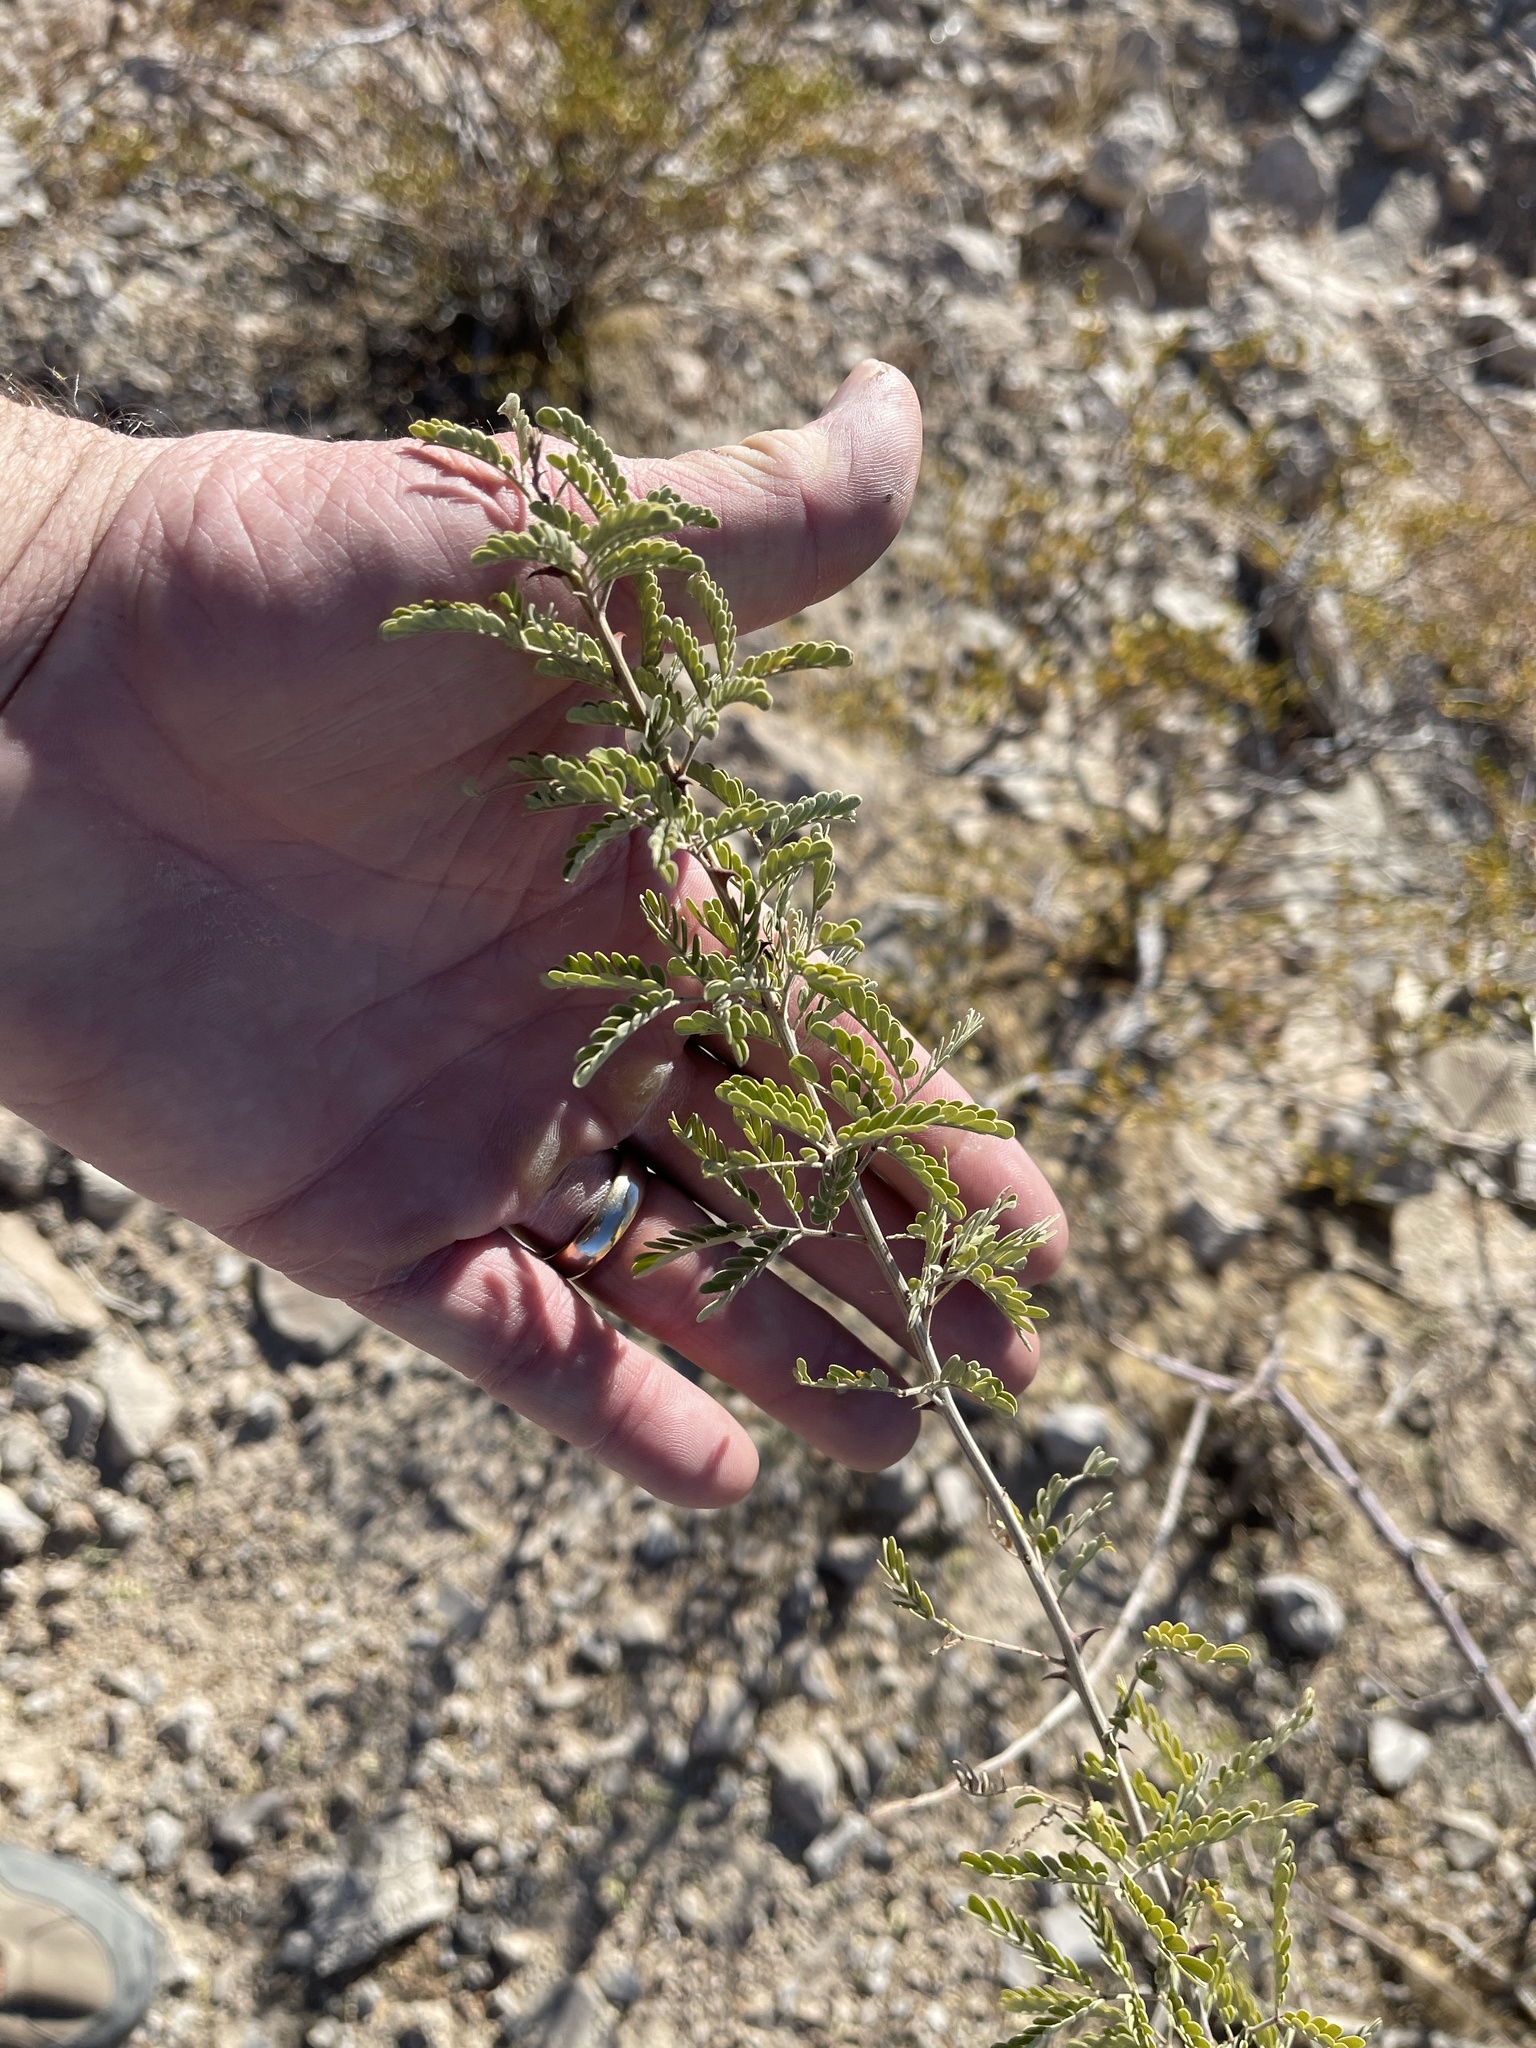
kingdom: Plantae
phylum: Tracheophyta
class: Magnoliopsida
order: Fabales
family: Fabaceae
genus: Senegalia
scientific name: Senegalia greggii
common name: Texas-mimosa
